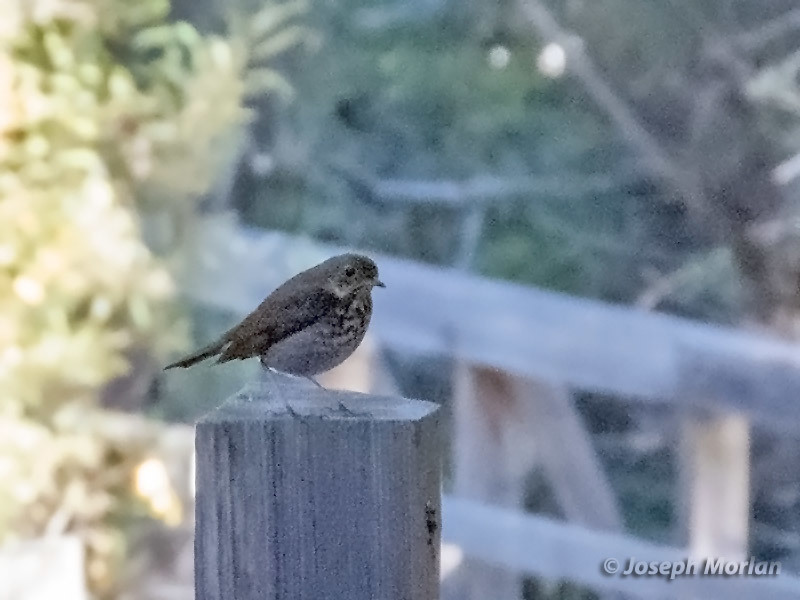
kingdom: Animalia
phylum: Chordata
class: Aves
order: Passeriformes
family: Turdidae
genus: Catharus
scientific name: Catharus guttatus
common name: Hermit thrush
